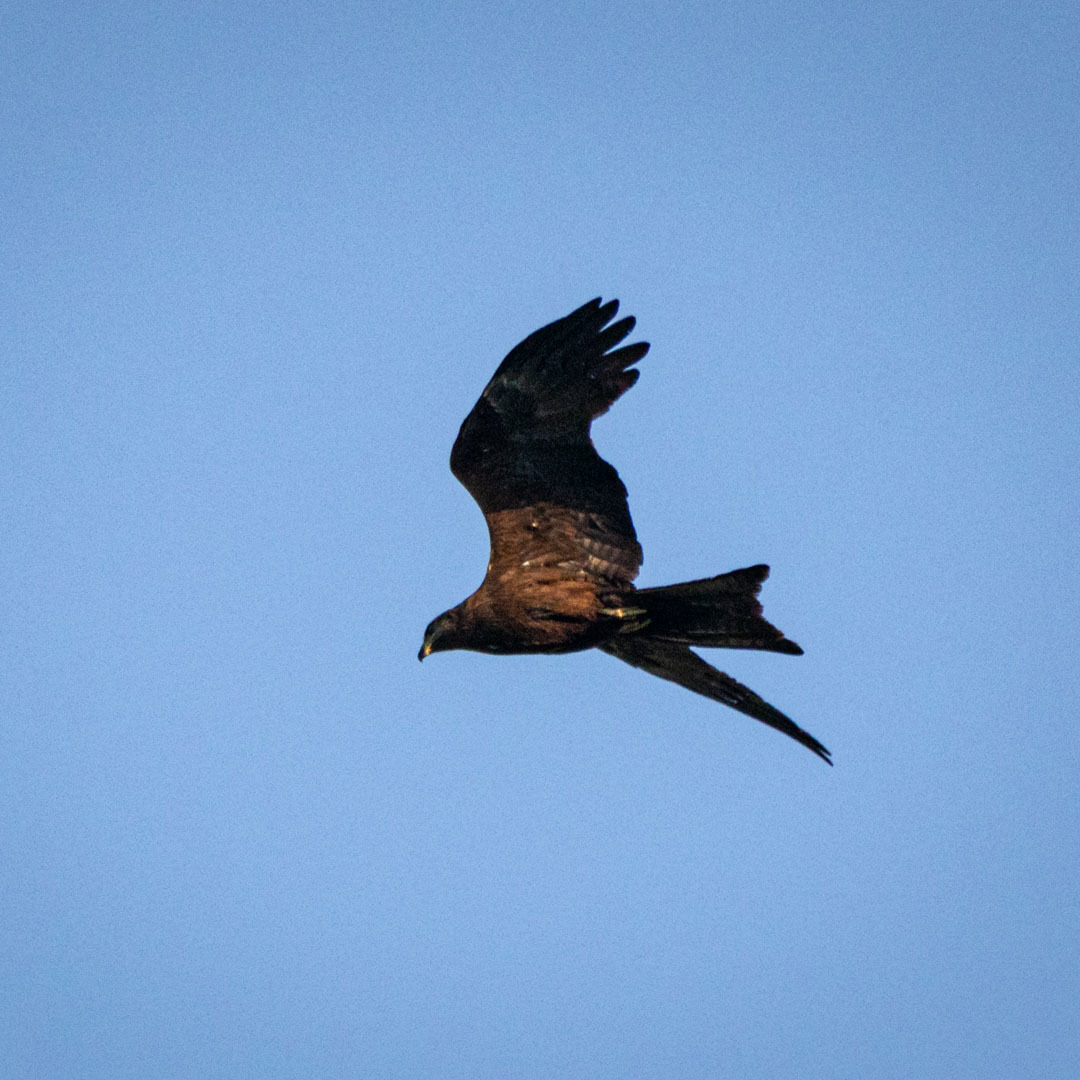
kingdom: Animalia
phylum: Chordata
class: Aves
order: Accipitriformes
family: Accipitridae
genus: Milvus
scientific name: Milvus migrans
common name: Black kite
